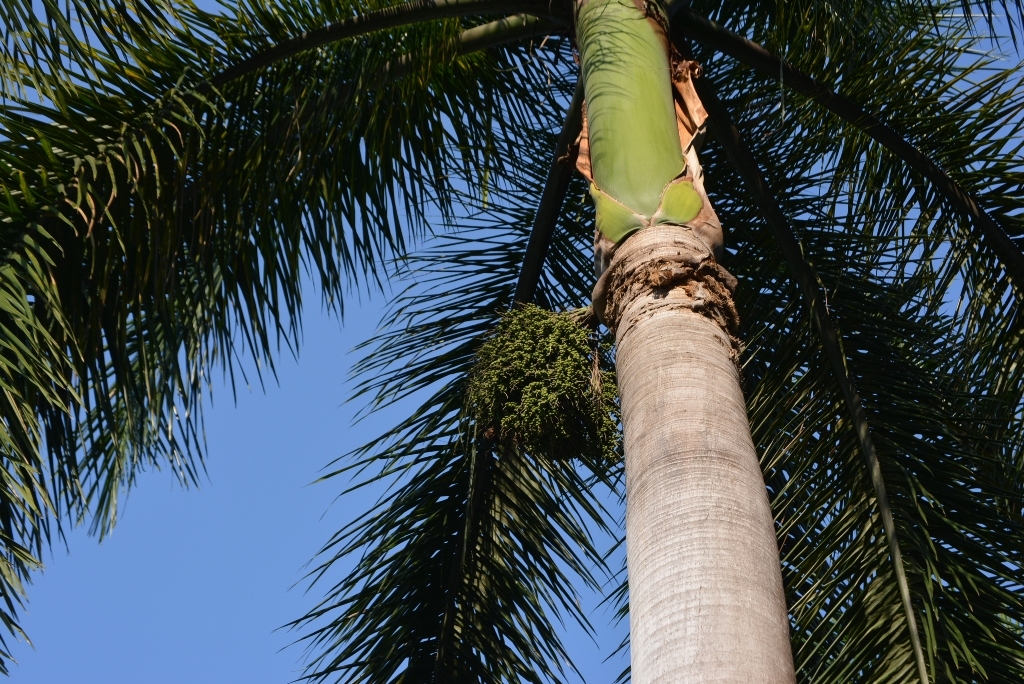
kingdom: Plantae
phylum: Tracheophyta
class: Liliopsida
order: Arecales
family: Arecaceae
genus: Roystonea
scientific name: Roystonea regia
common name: Florida royal palm
